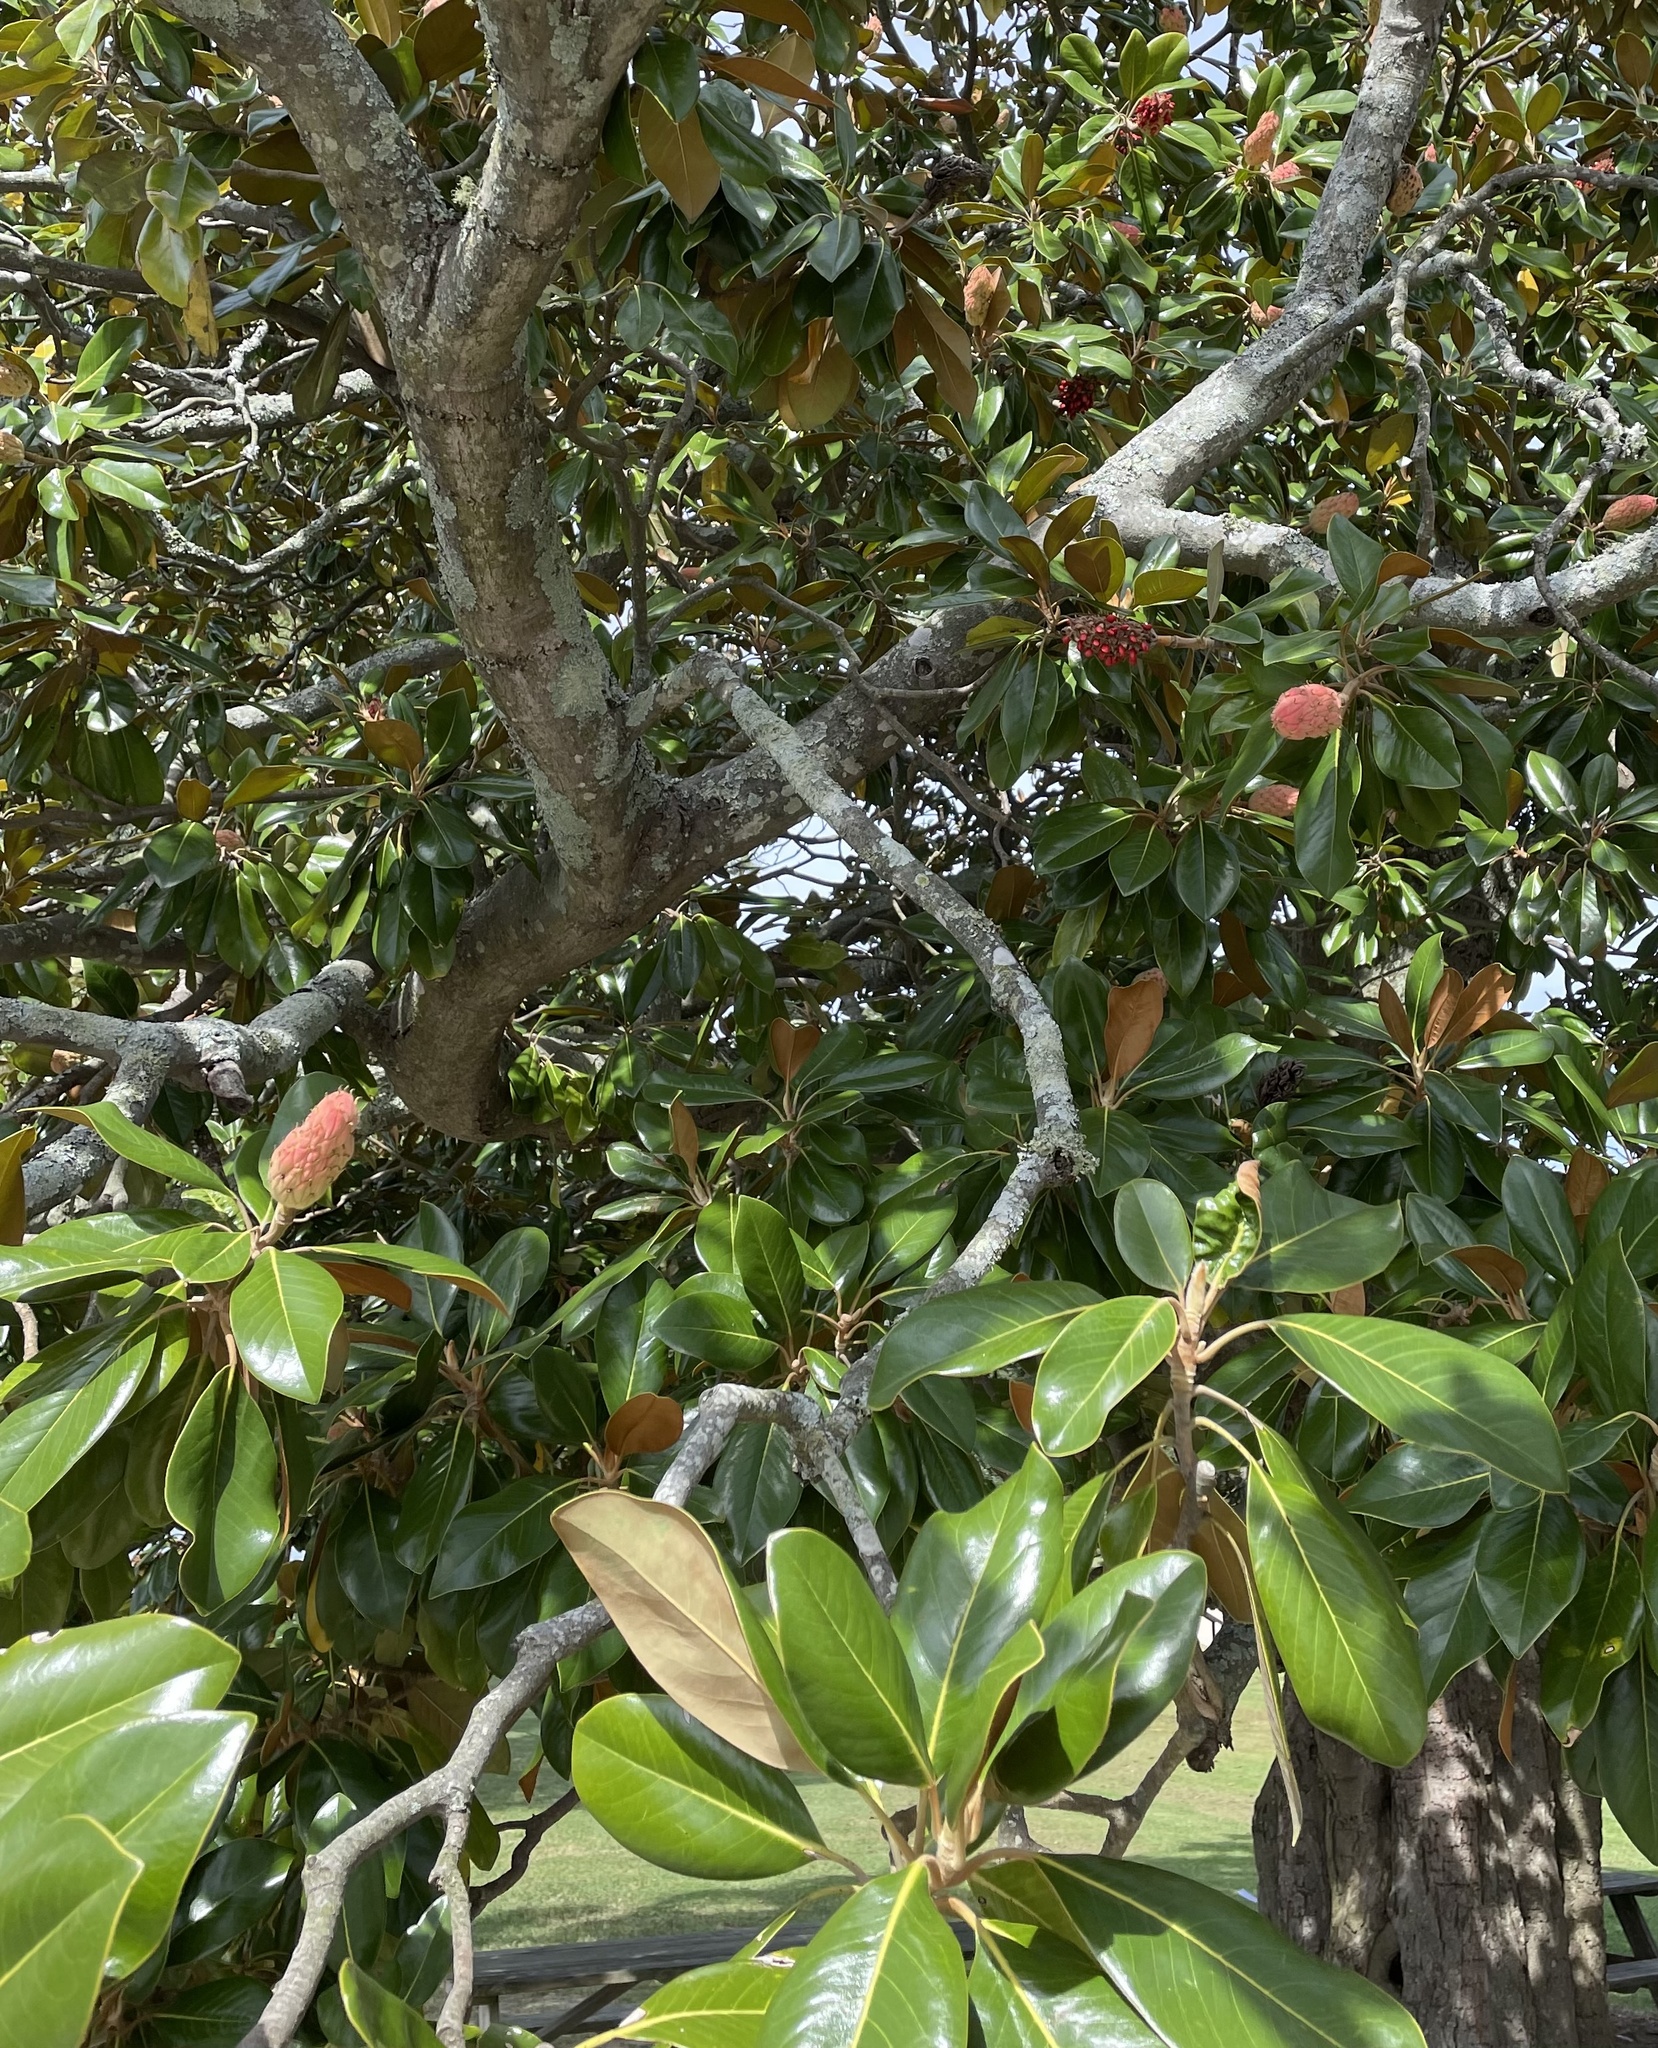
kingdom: Plantae
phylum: Tracheophyta
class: Magnoliopsida
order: Magnoliales
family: Magnoliaceae
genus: Magnolia
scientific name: Magnolia grandiflora
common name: Southern magnolia
